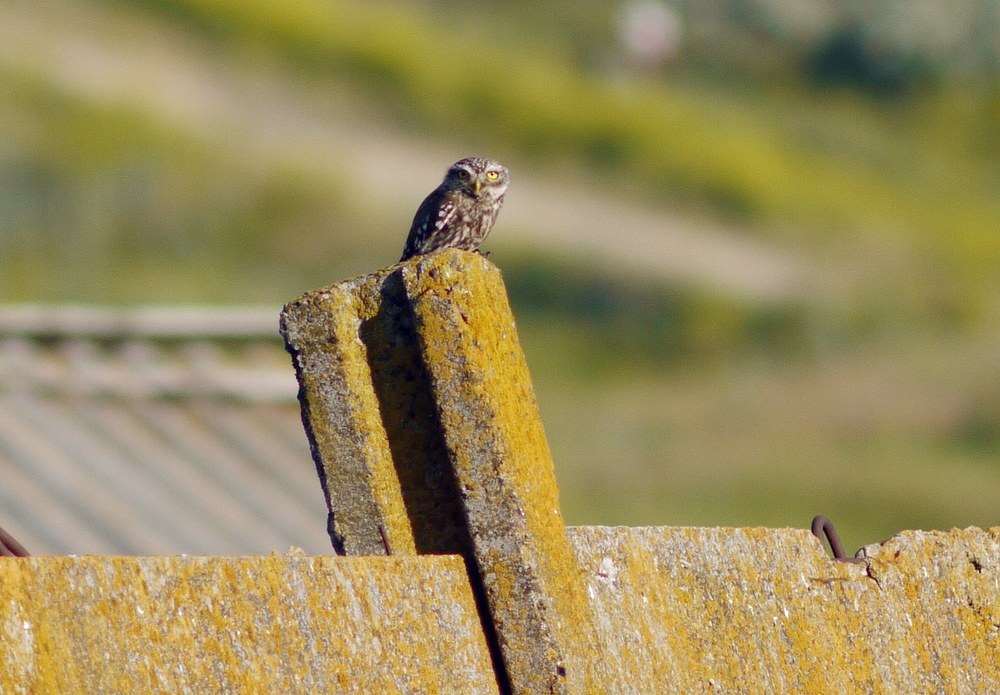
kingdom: Animalia
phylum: Chordata
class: Aves
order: Strigiformes
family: Strigidae
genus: Athene
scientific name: Athene noctua
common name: Little owl
